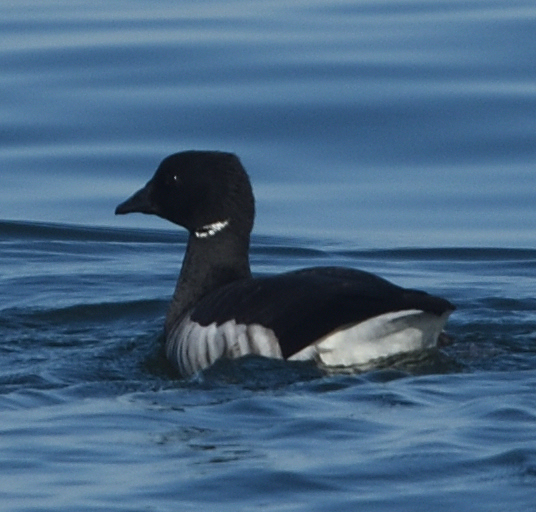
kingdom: Animalia
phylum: Chordata
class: Aves
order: Anseriformes
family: Anatidae
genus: Branta
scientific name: Branta bernicla
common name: Brant goose
